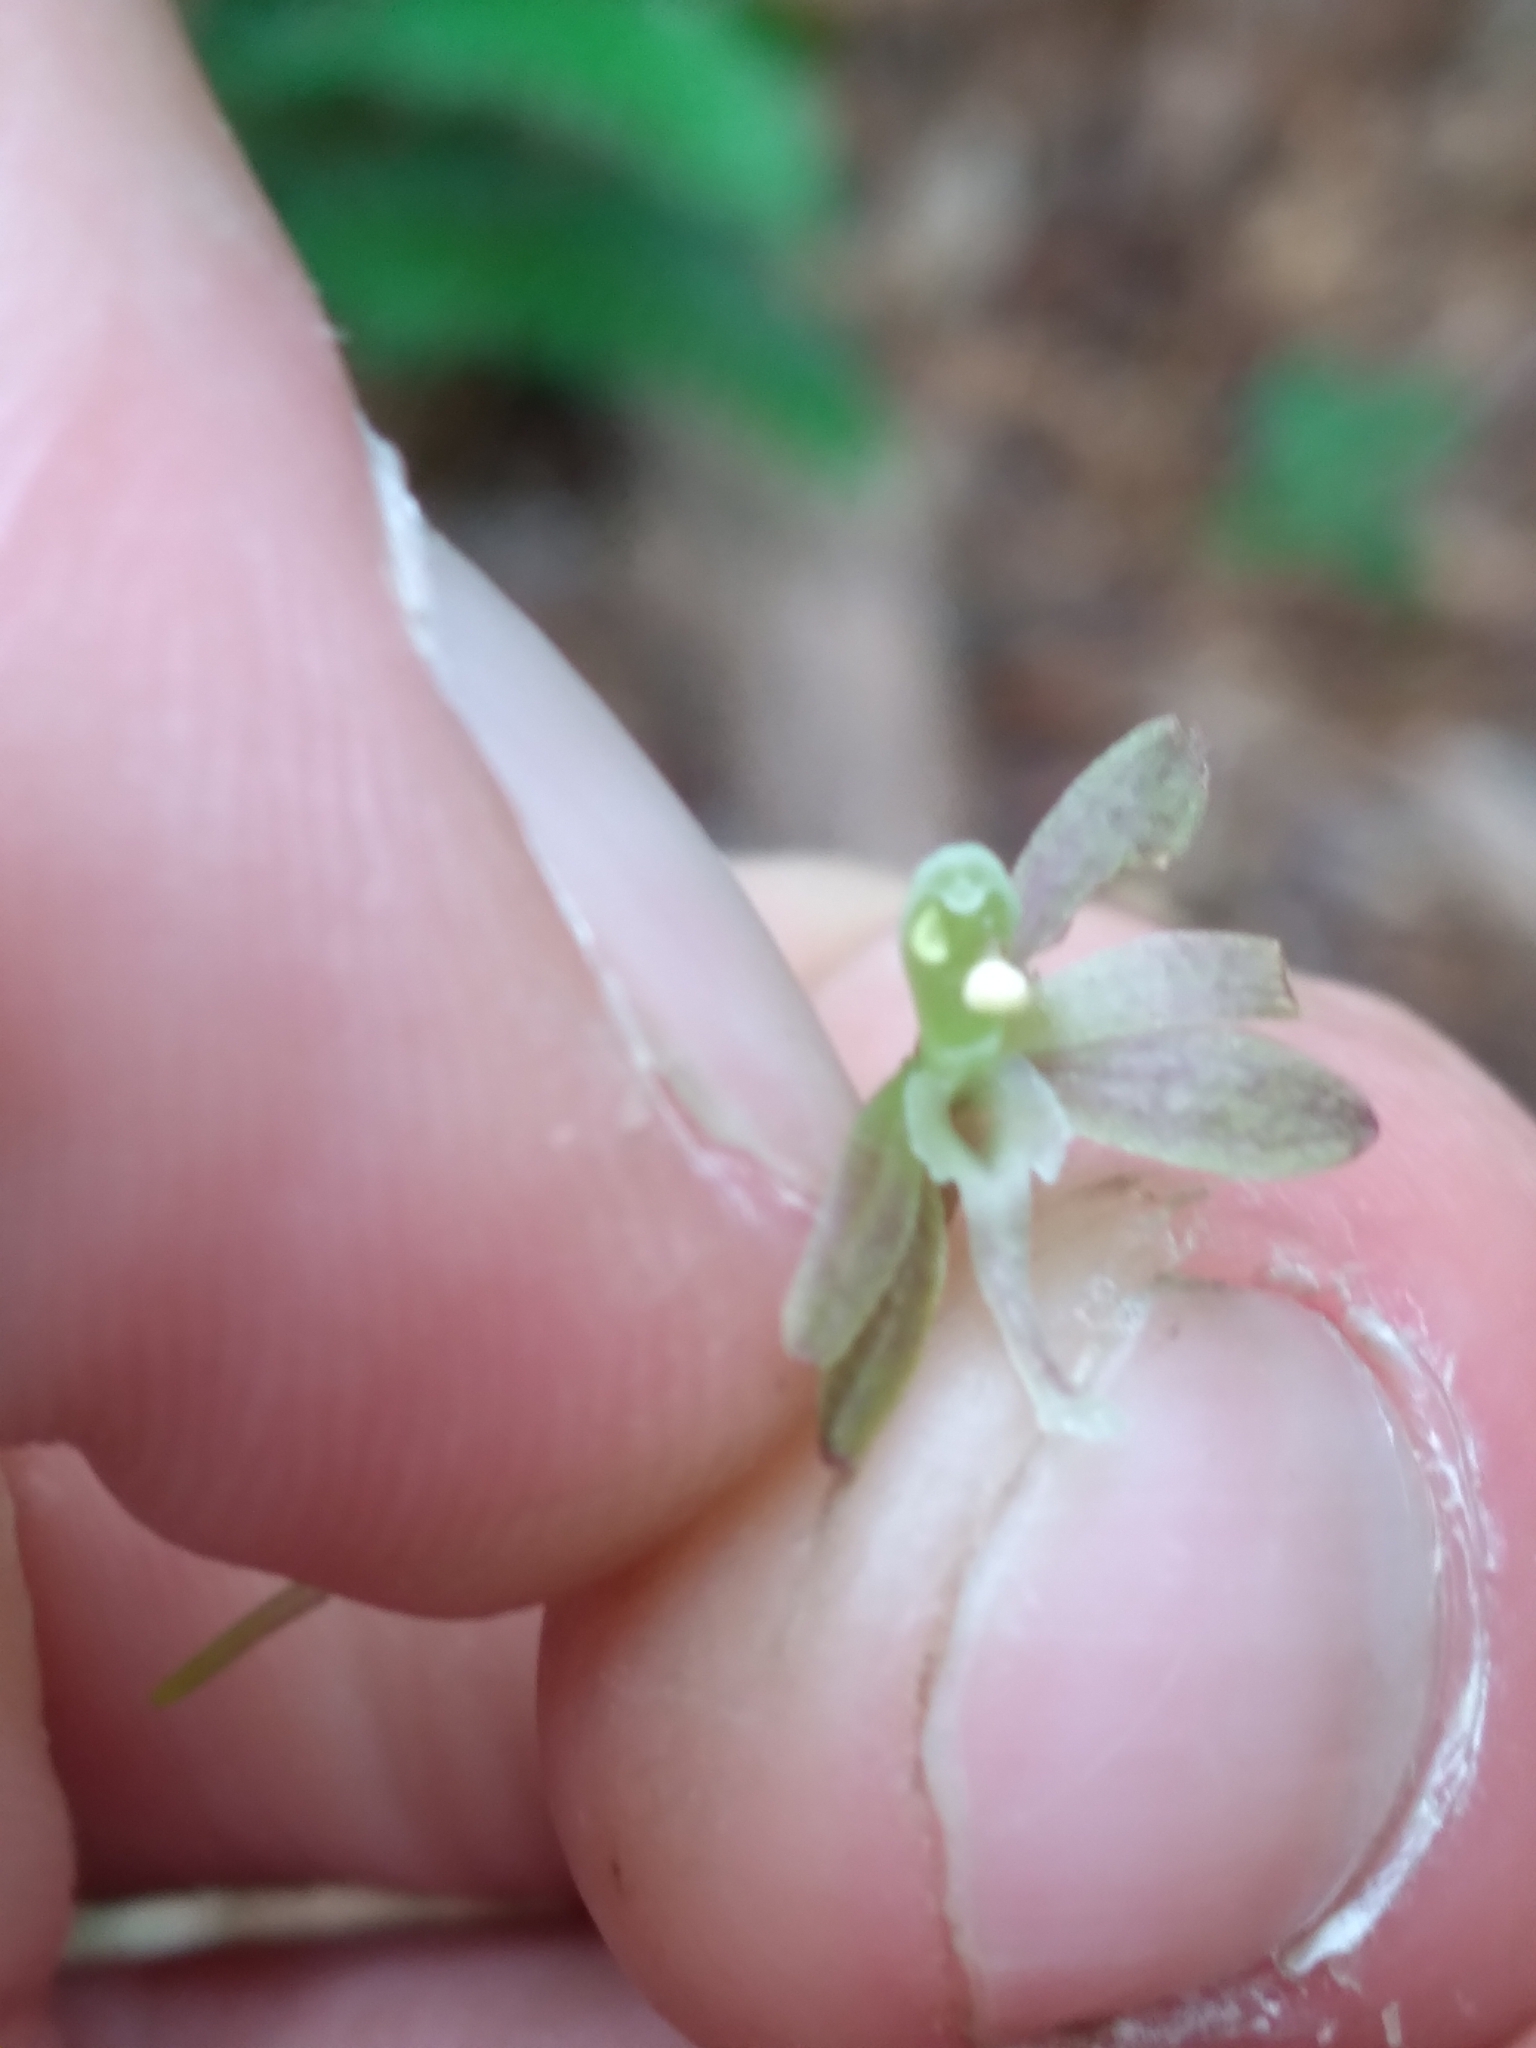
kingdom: Plantae
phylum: Tracheophyta
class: Liliopsida
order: Asparagales
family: Orchidaceae
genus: Tipularia
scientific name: Tipularia discolor
